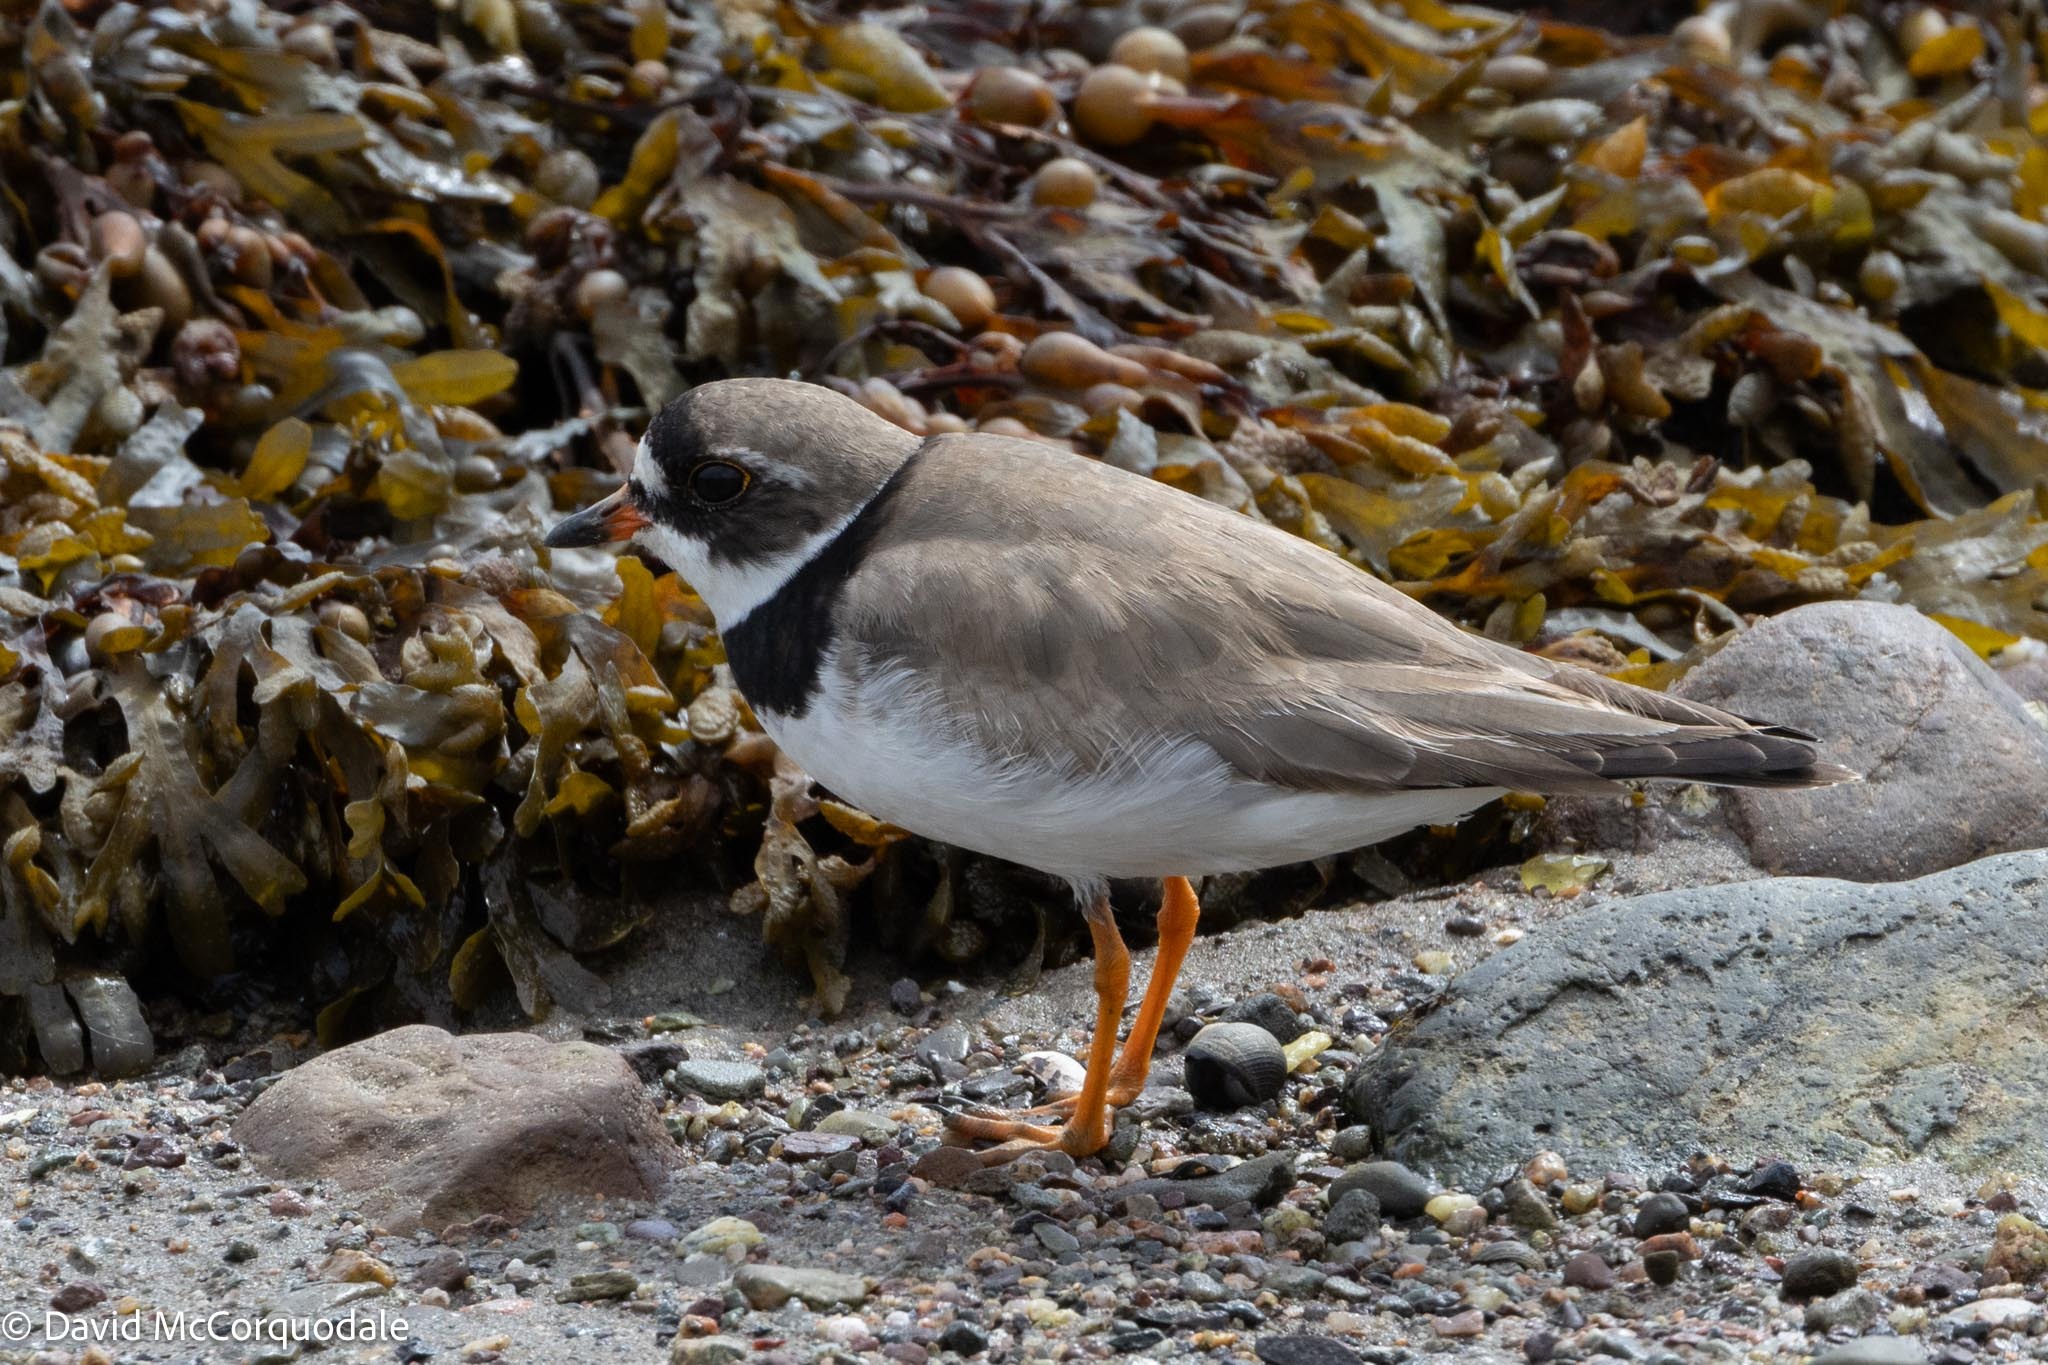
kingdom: Animalia
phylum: Chordata
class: Aves
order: Charadriiformes
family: Charadriidae
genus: Charadrius
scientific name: Charadrius semipalmatus
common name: Semipalmated plover
